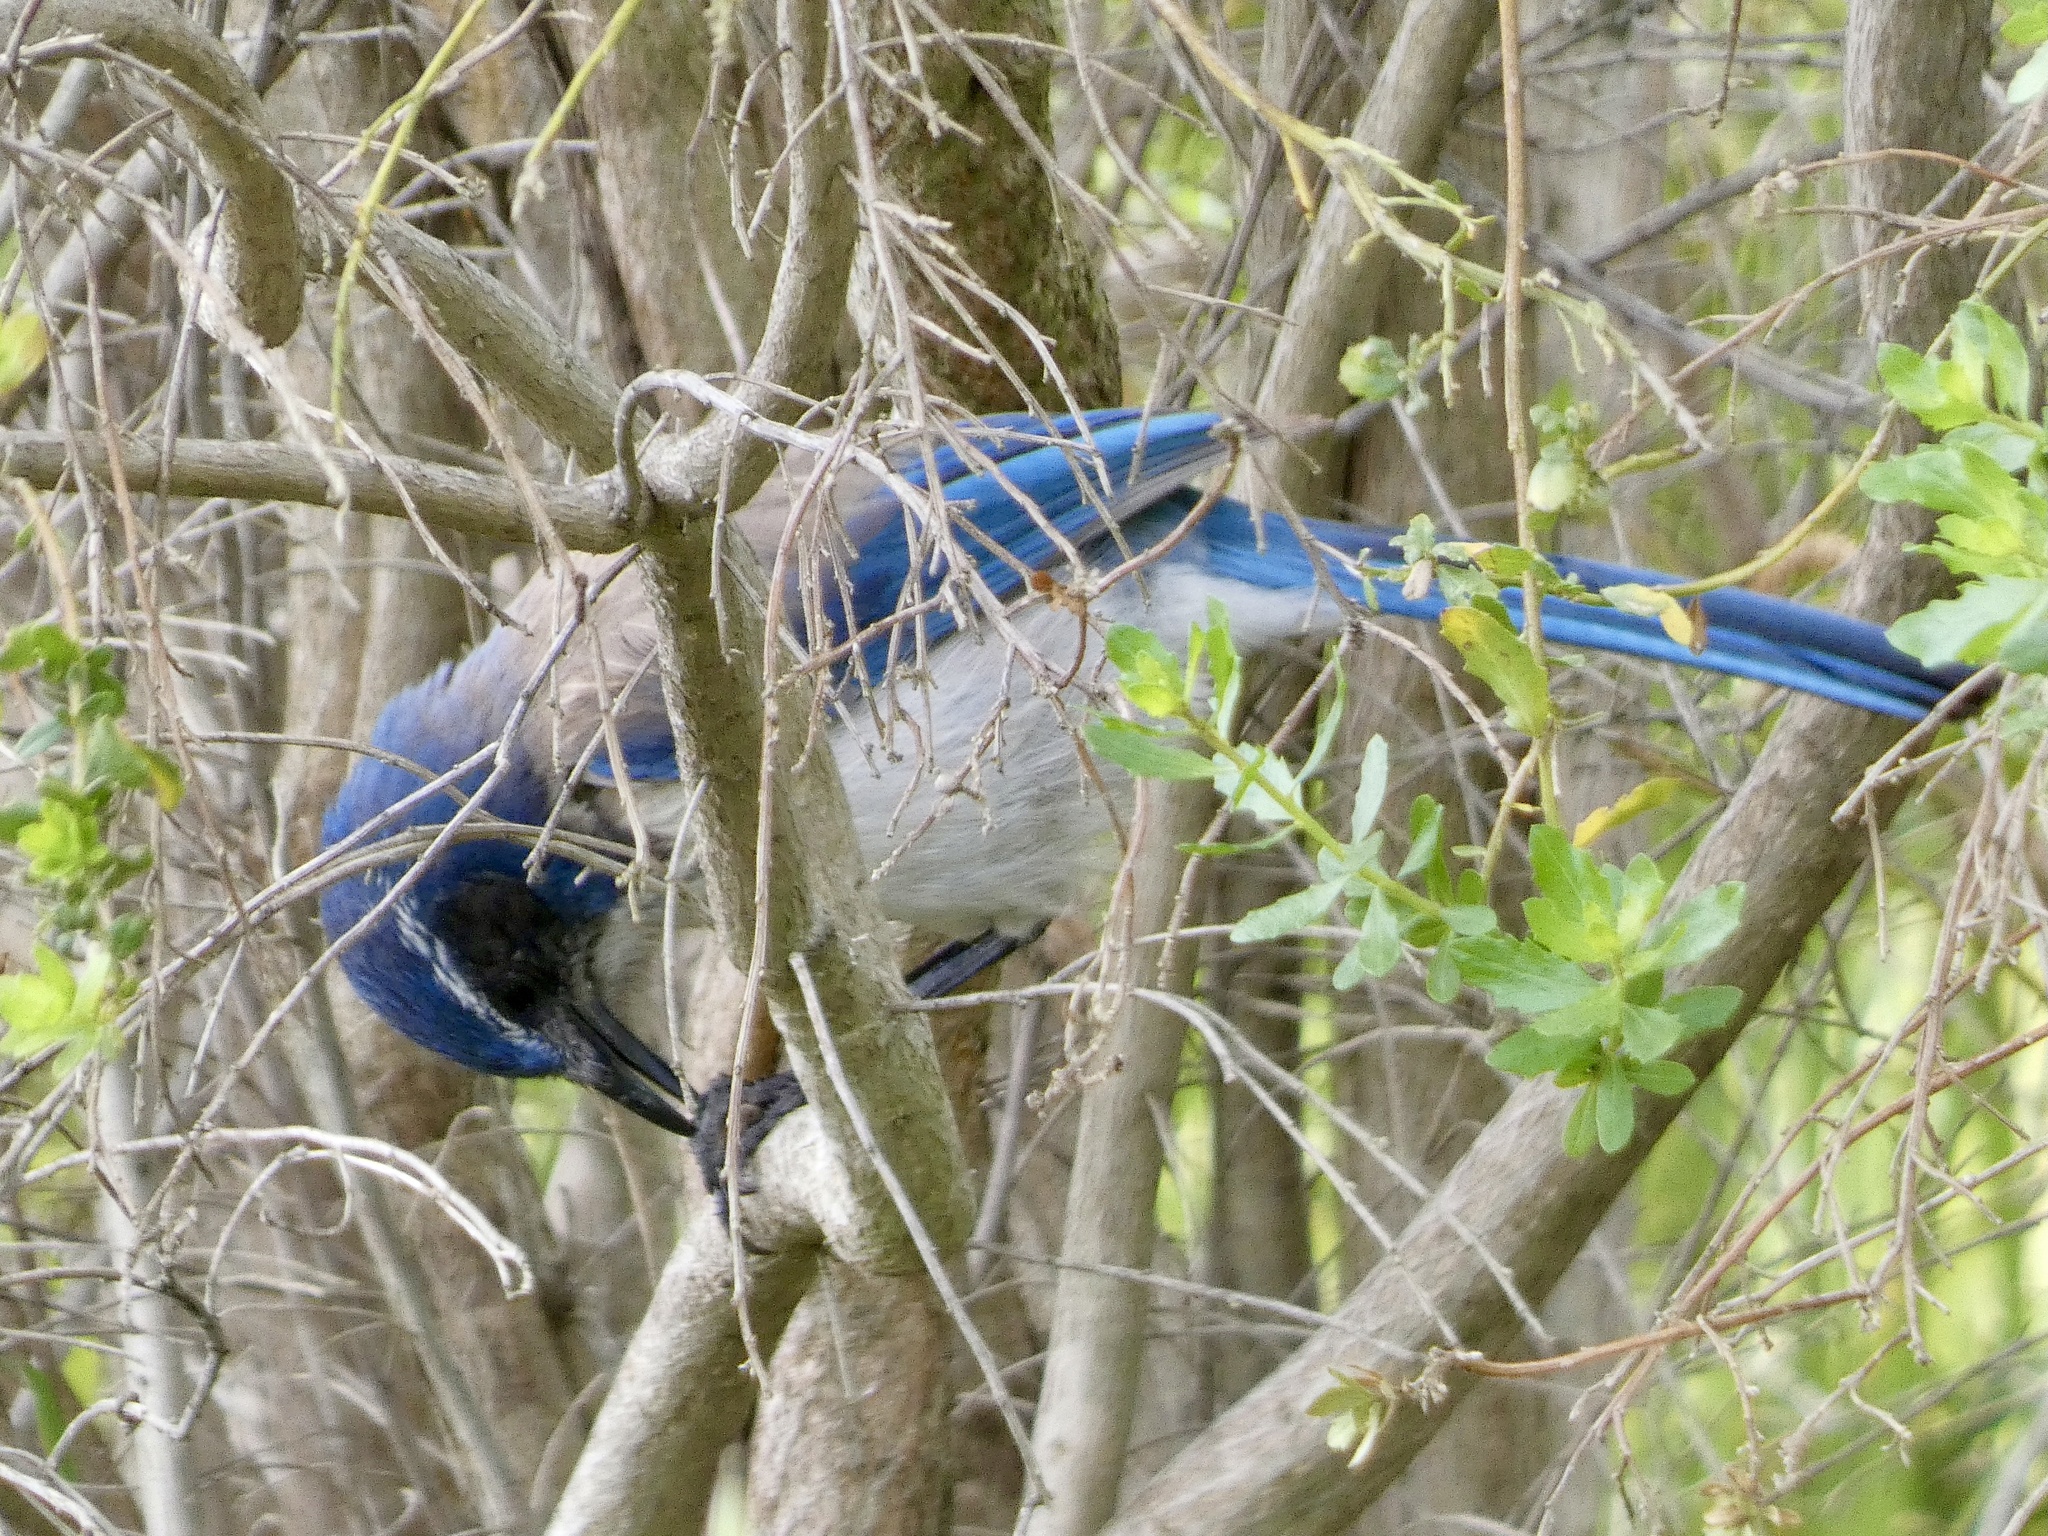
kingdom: Animalia
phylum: Chordata
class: Aves
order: Passeriformes
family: Corvidae
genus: Aphelocoma
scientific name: Aphelocoma californica
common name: California scrub-jay
